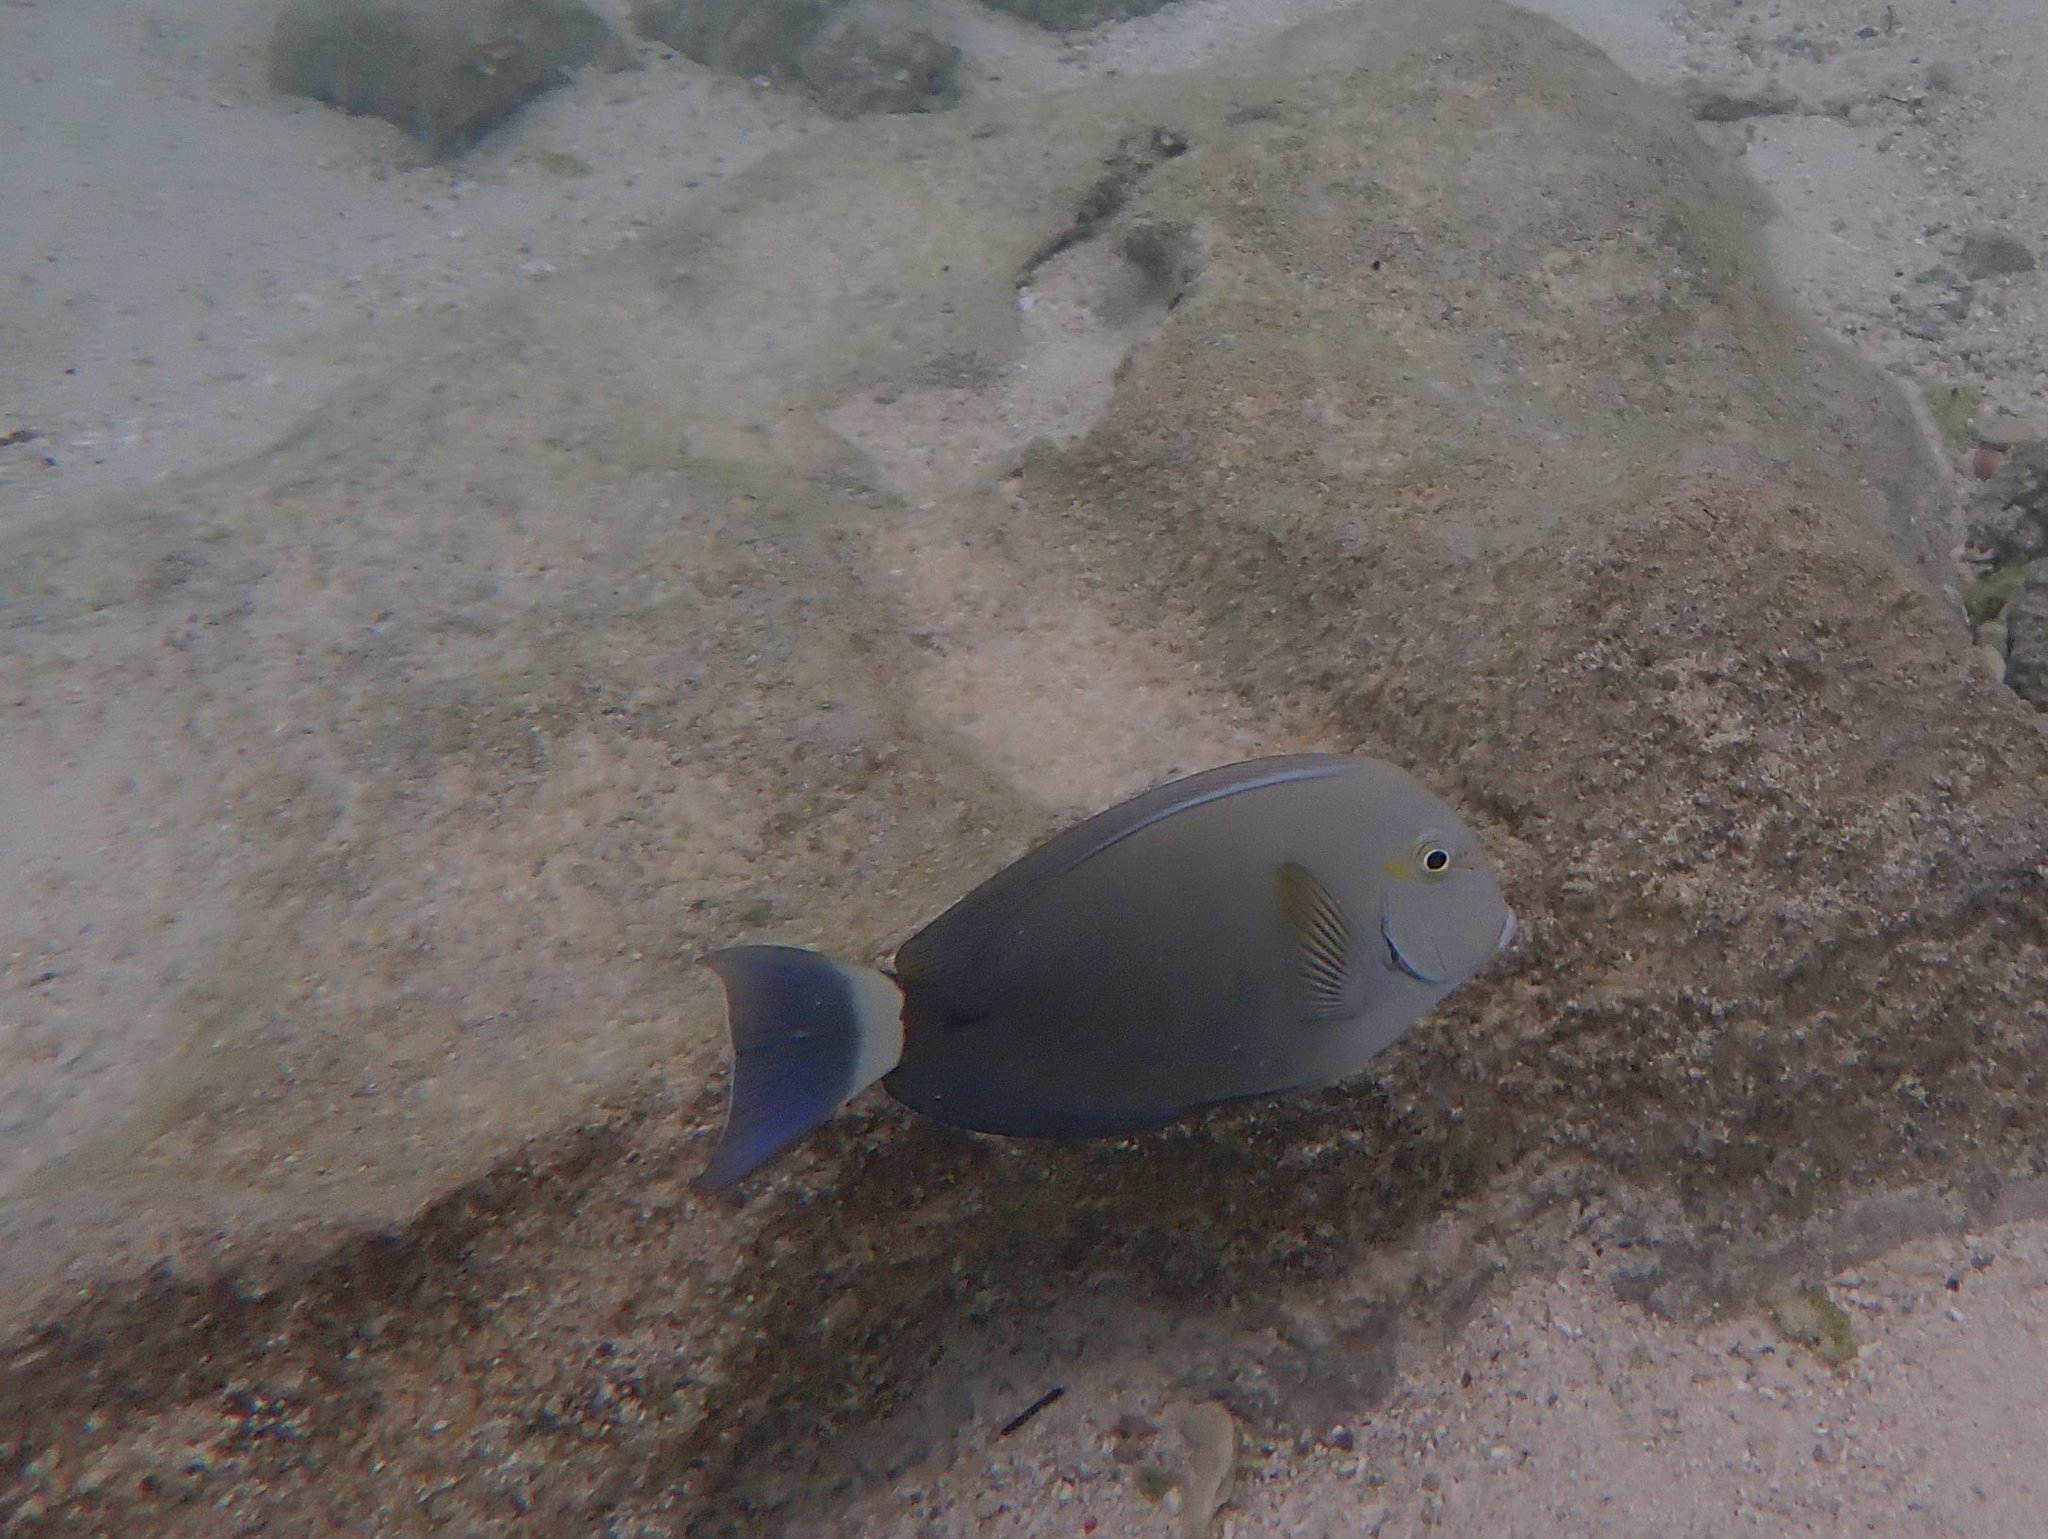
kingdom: Animalia
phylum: Chordata
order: Perciformes
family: Acanthuridae
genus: Acanthurus
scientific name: Acanthurus xanthopterus
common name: Cuvier's surgeonfish
